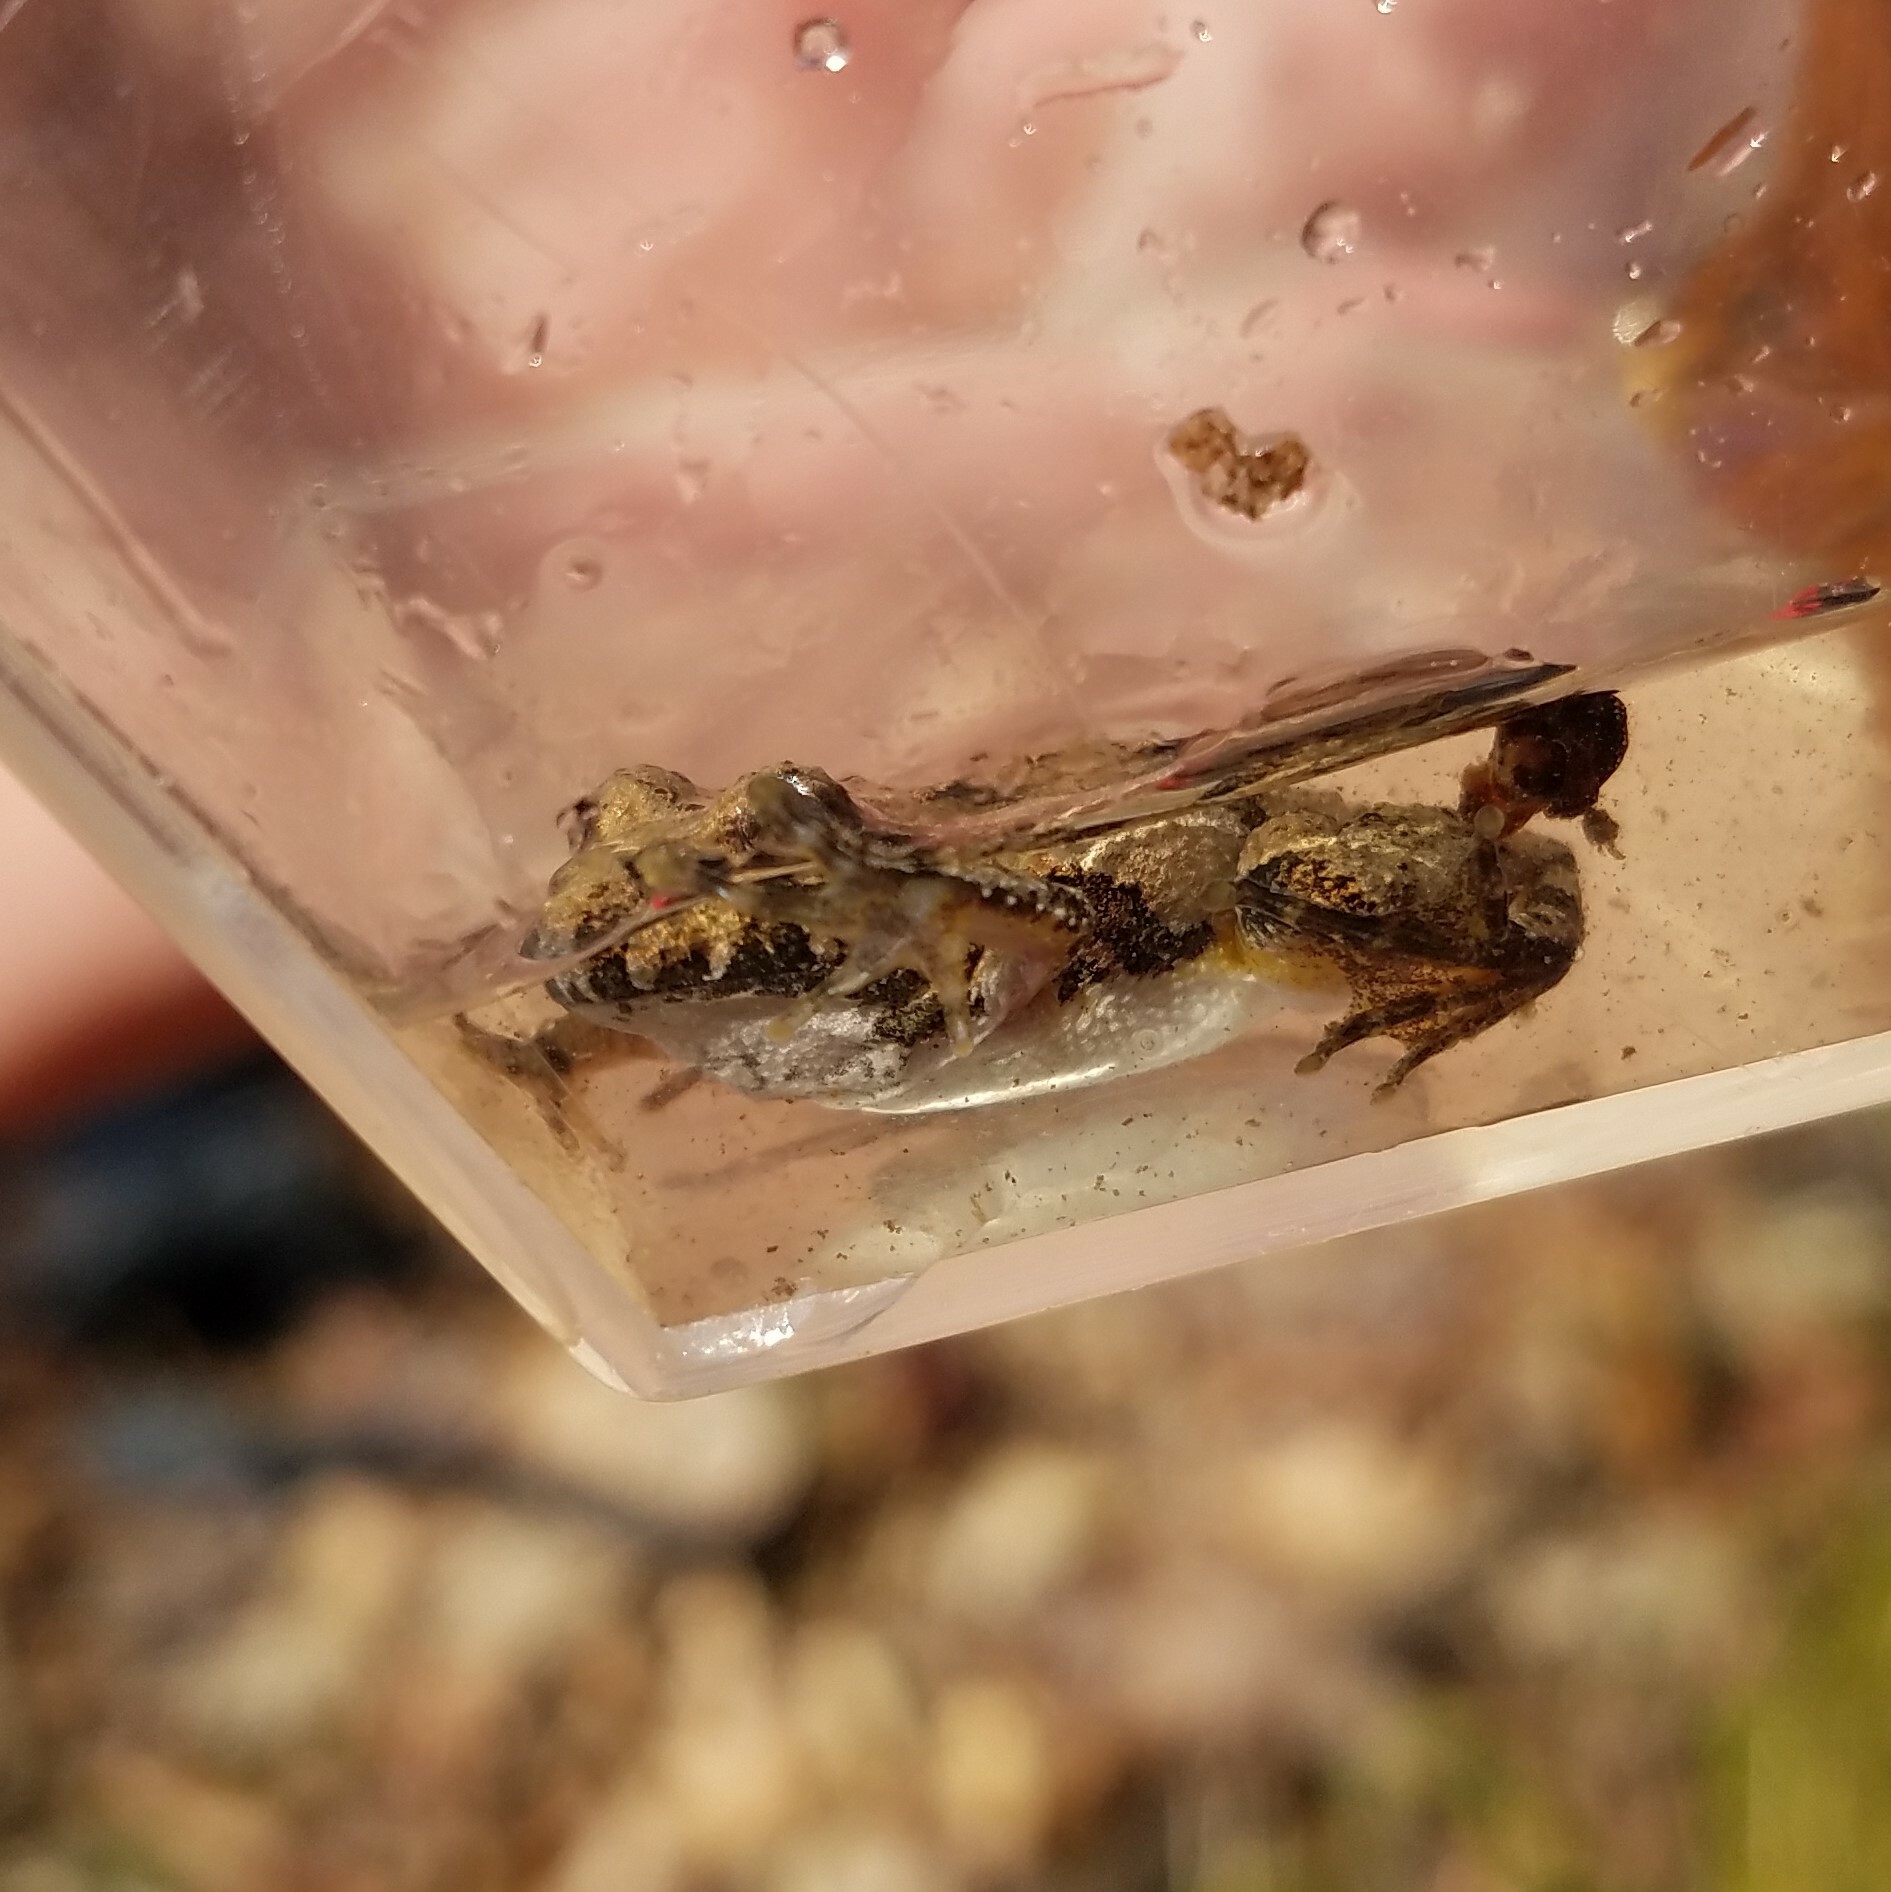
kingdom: Animalia
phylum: Chordata
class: Amphibia
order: Anura
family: Hylidae
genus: Acris
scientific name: Acris crepitans
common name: Northern cricket frog
